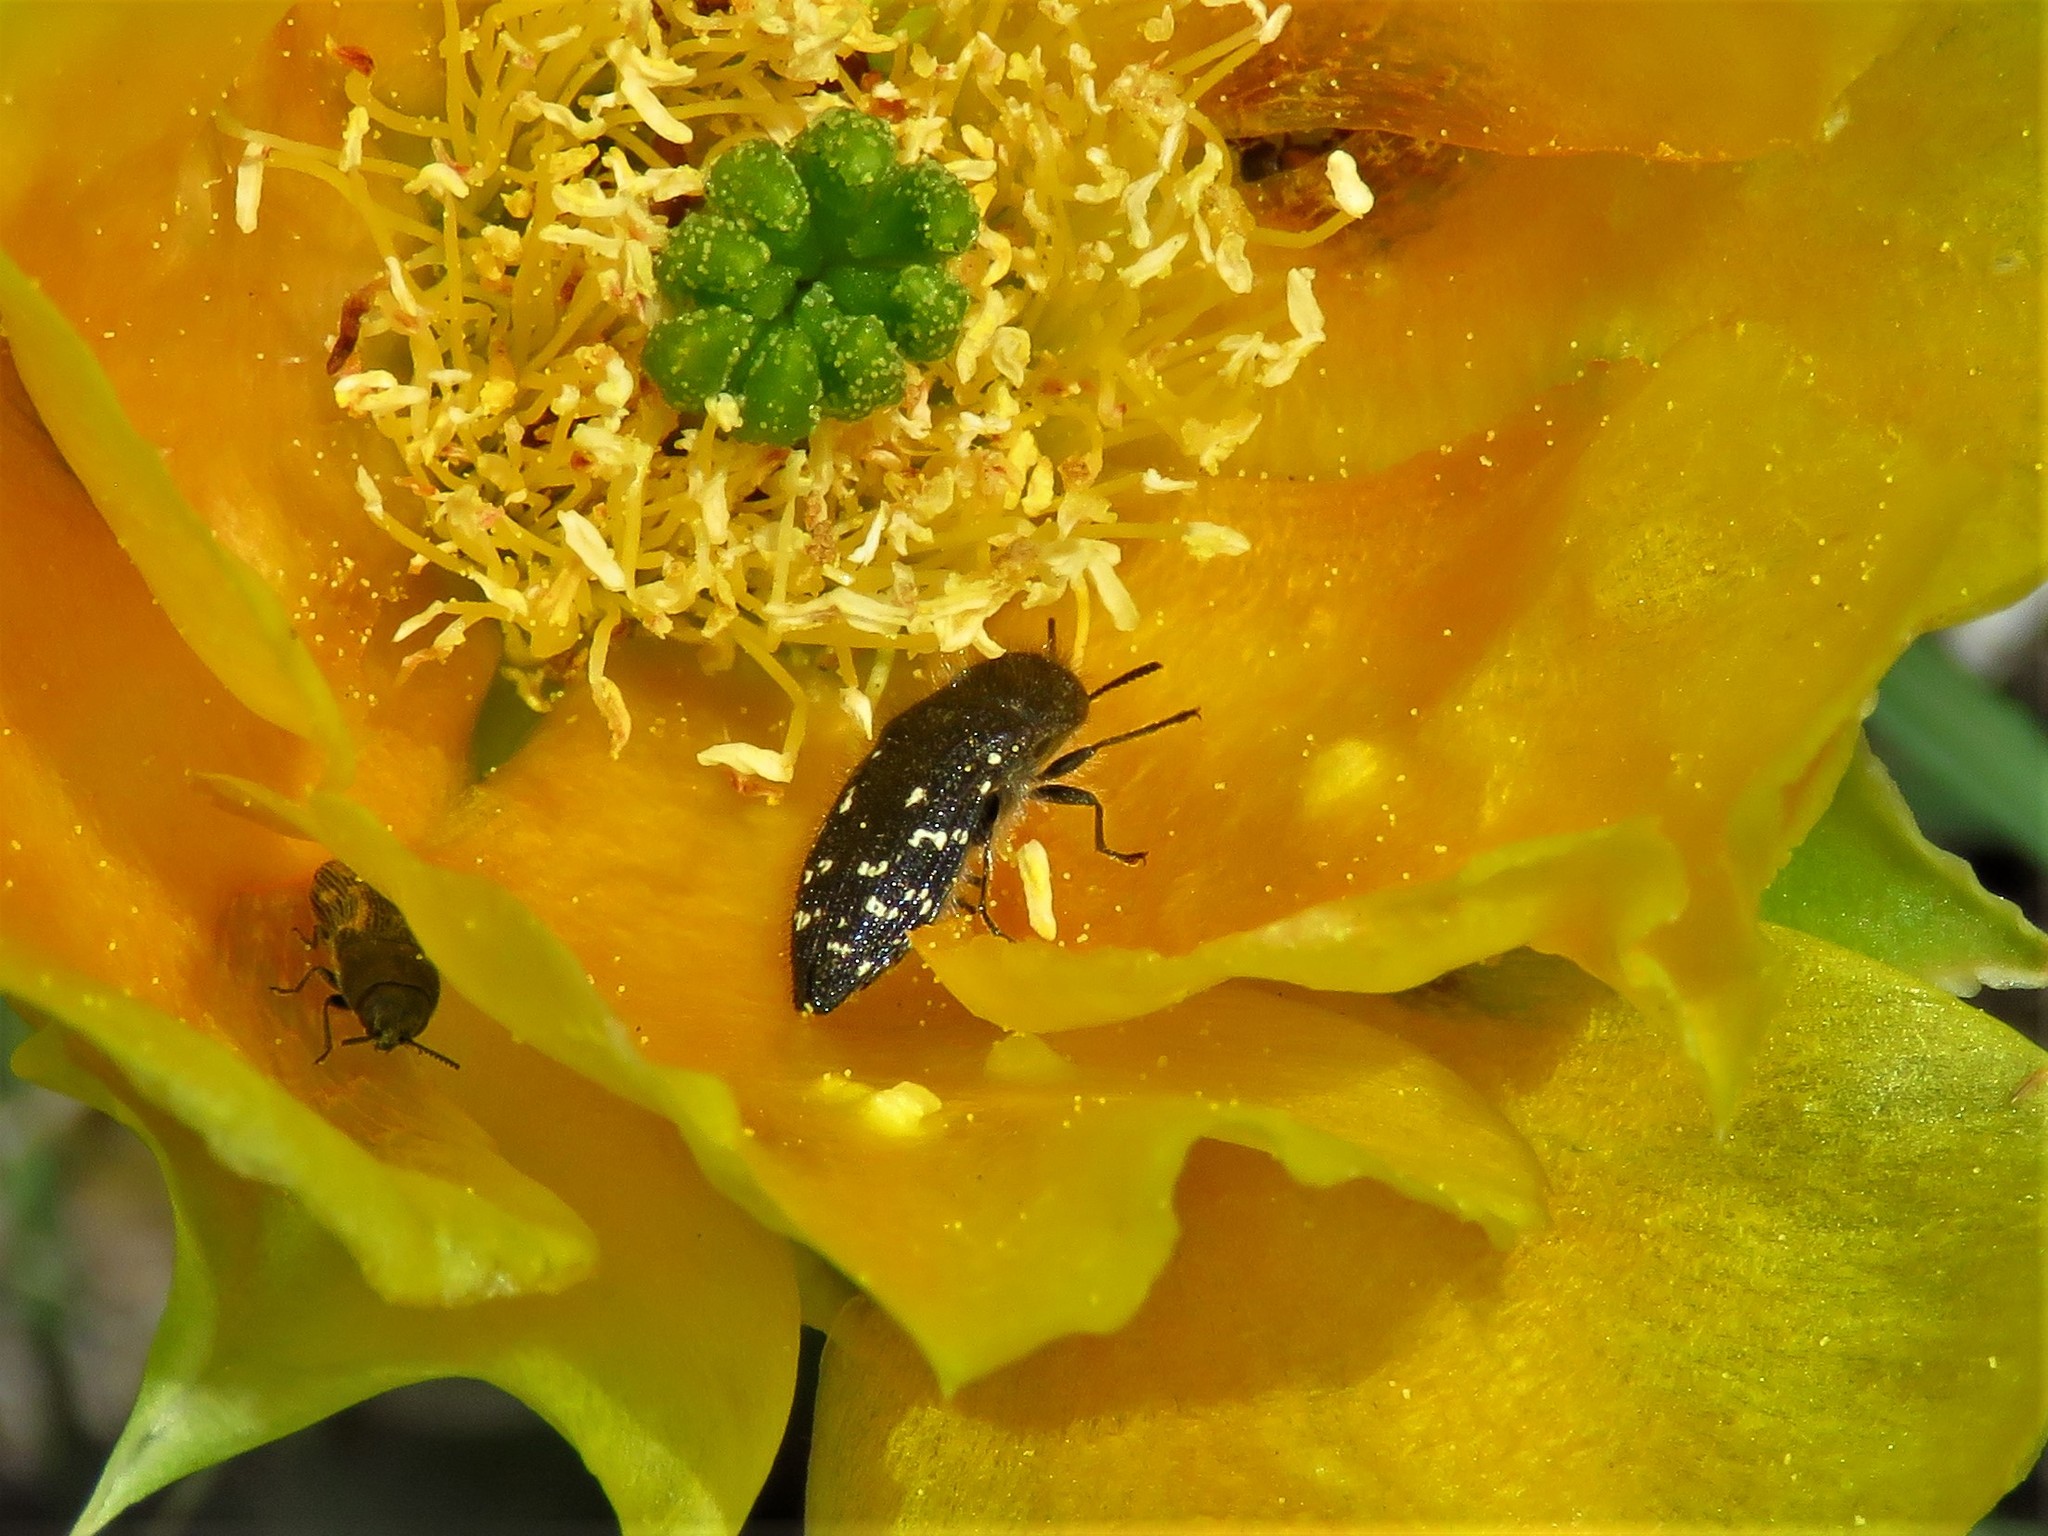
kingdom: Animalia
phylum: Arthropoda
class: Insecta
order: Coleoptera
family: Buprestidae
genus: Acmaeodera
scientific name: Acmaeodera ornatoides
